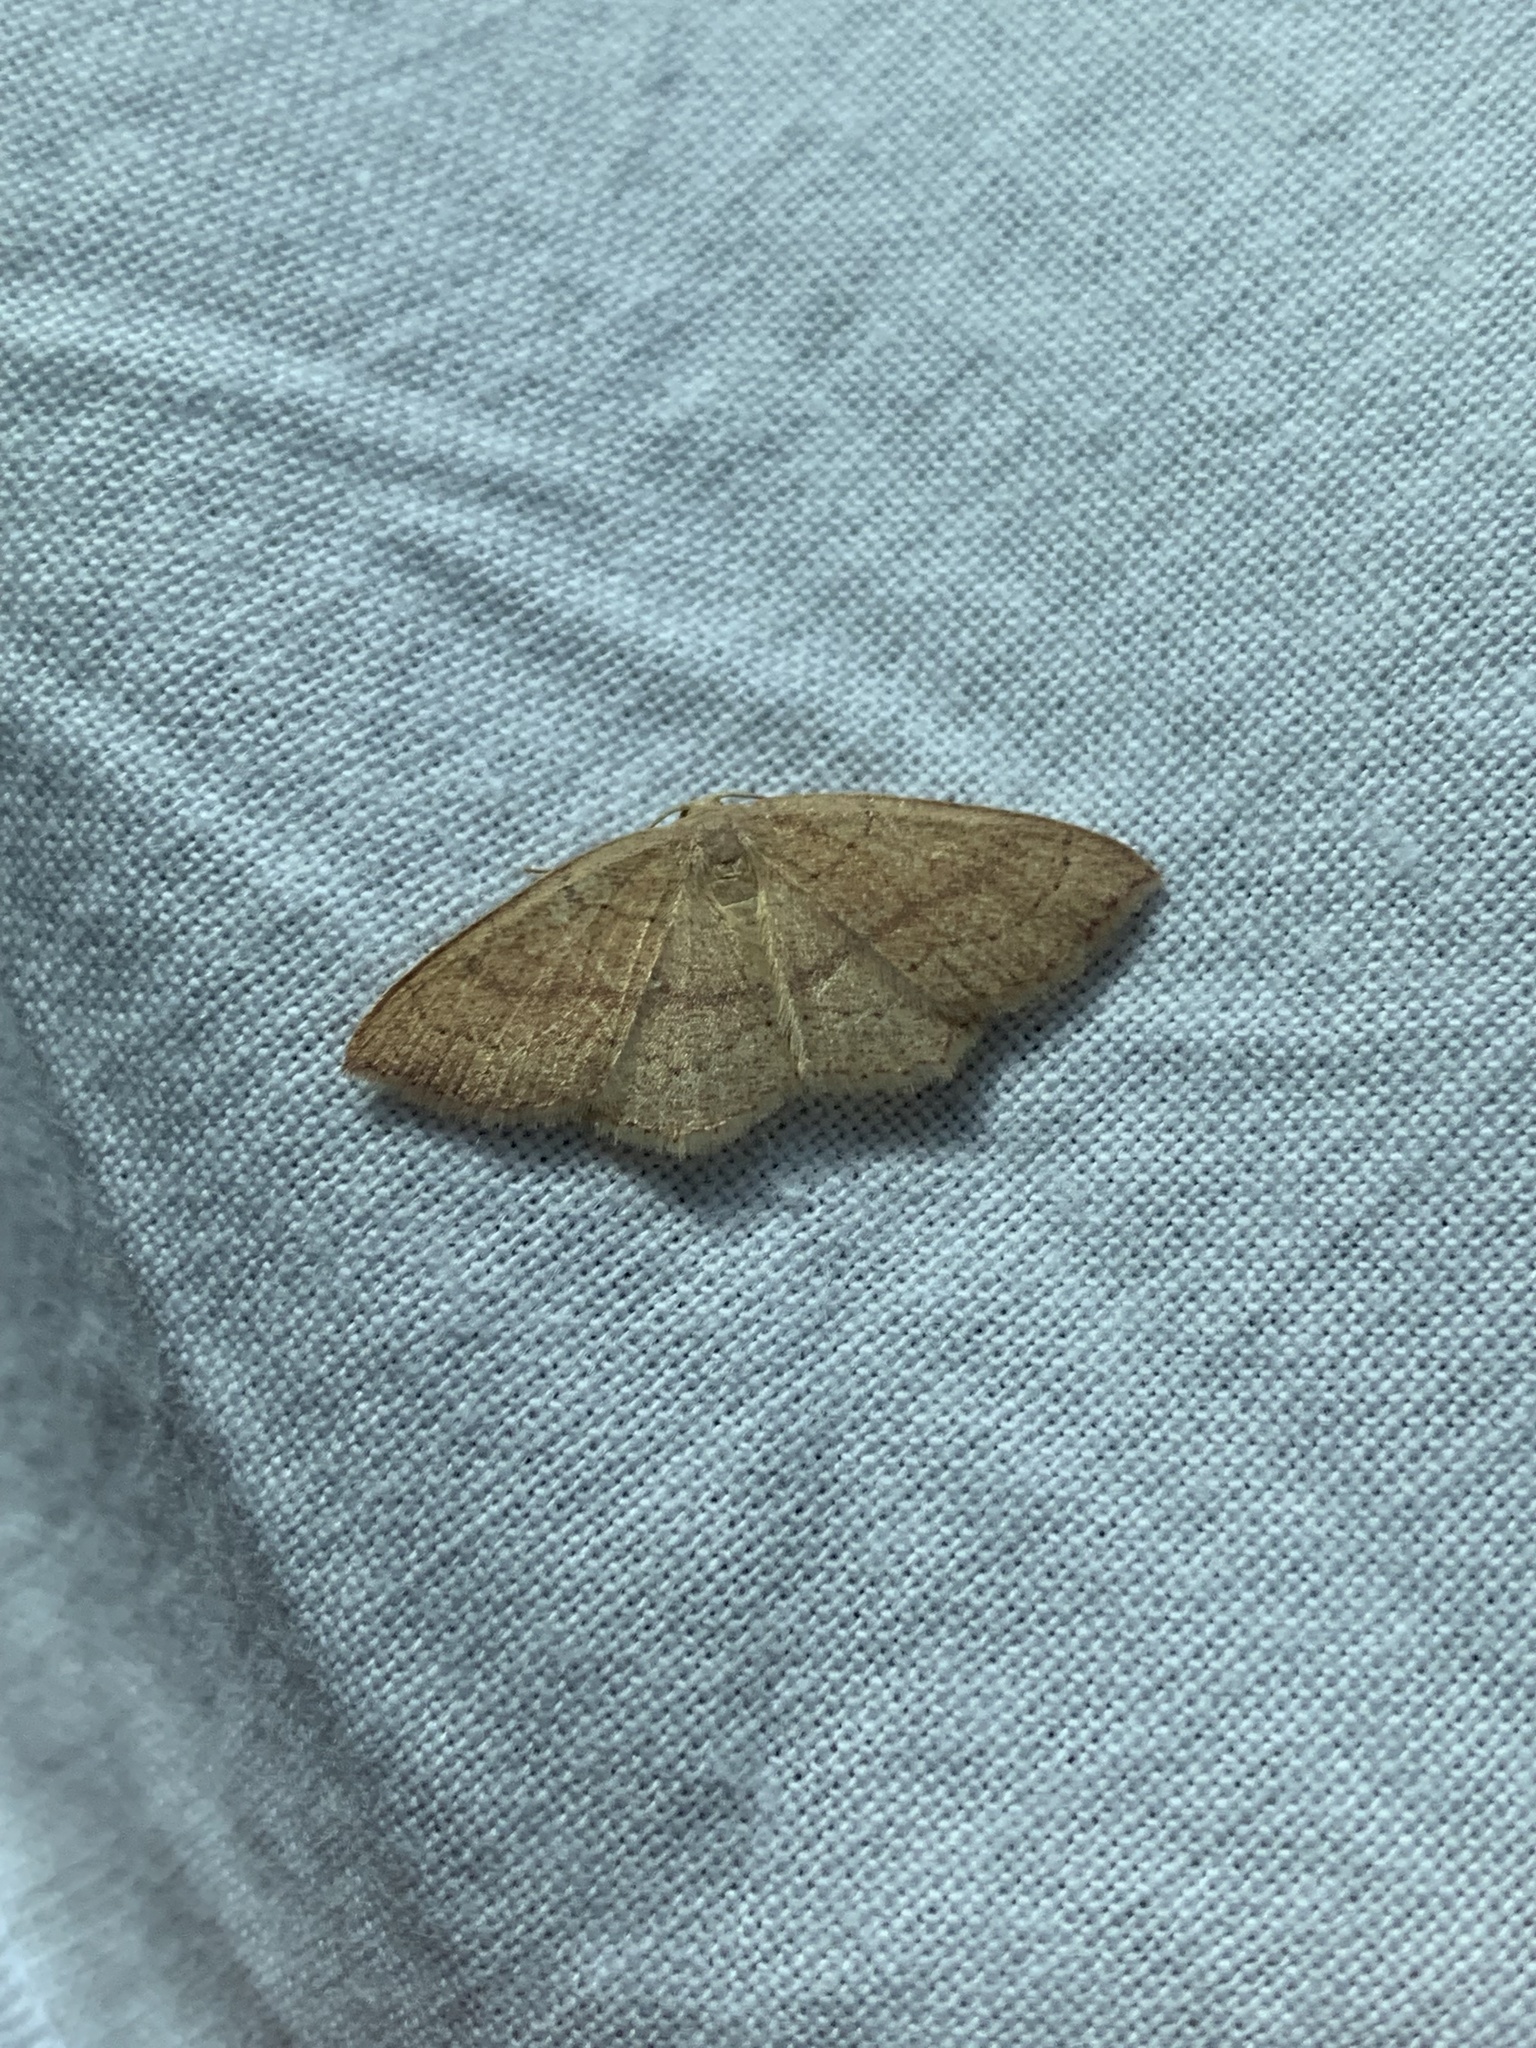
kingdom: Animalia
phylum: Arthropoda
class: Insecta
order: Lepidoptera
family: Geometridae
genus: Cyclophora
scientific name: Cyclophora punctaria
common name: Maiden's blush
